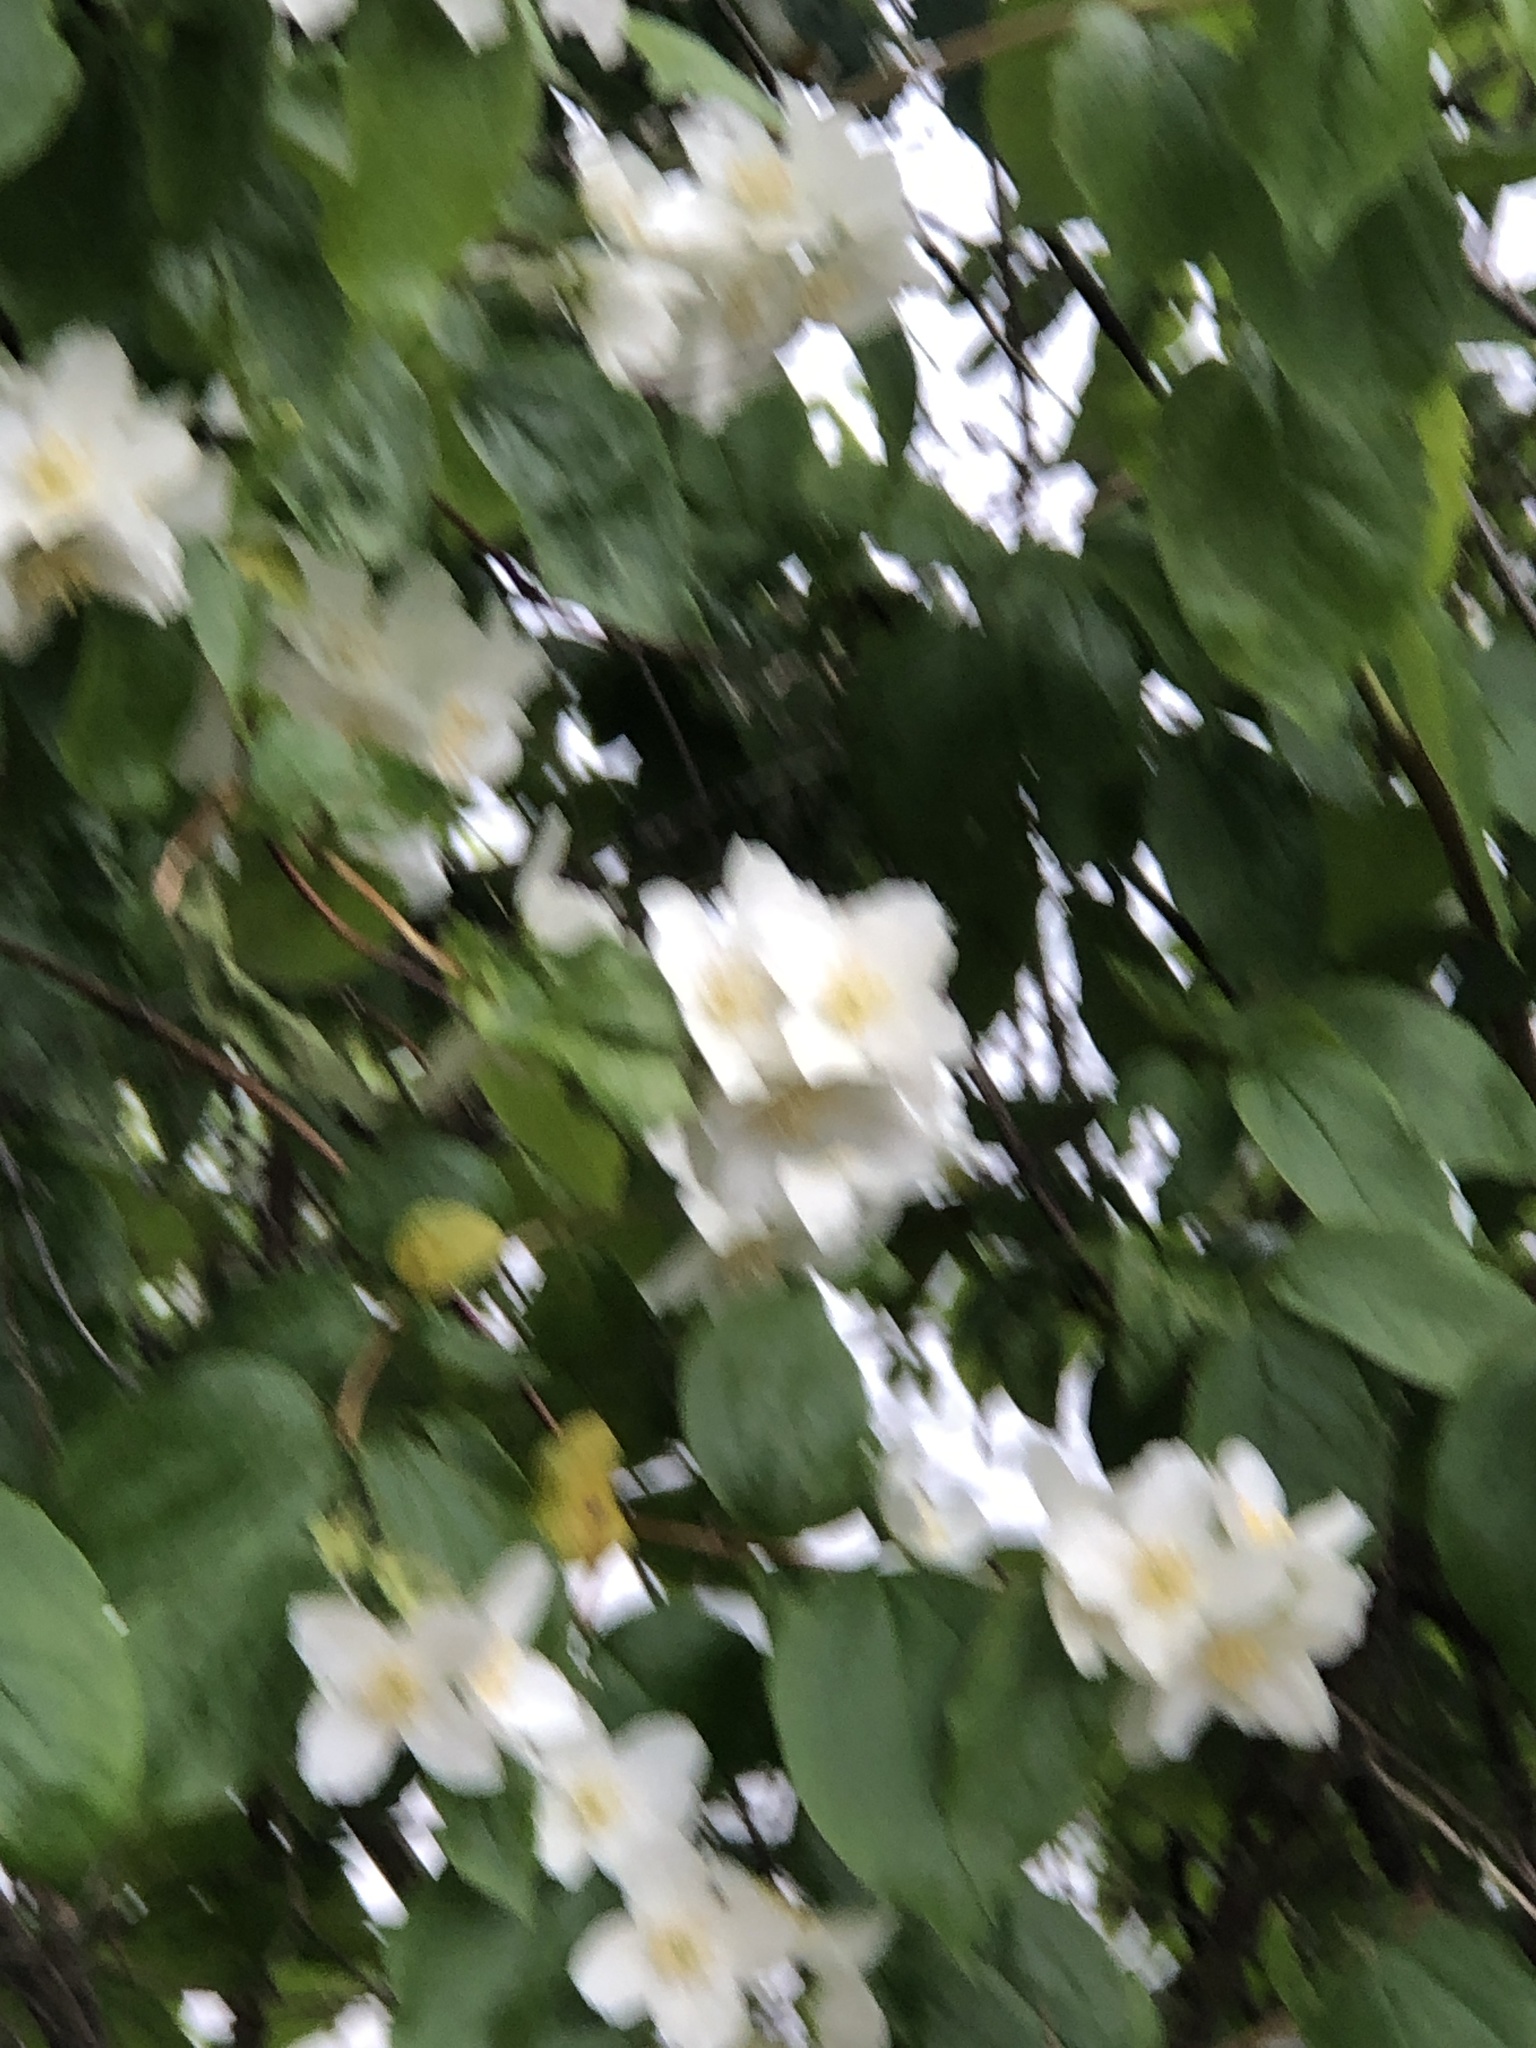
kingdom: Plantae
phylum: Tracheophyta
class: Magnoliopsida
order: Cornales
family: Hydrangeaceae
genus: Philadelphus
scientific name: Philadelphus lewisii
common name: Lewis's mock orange
